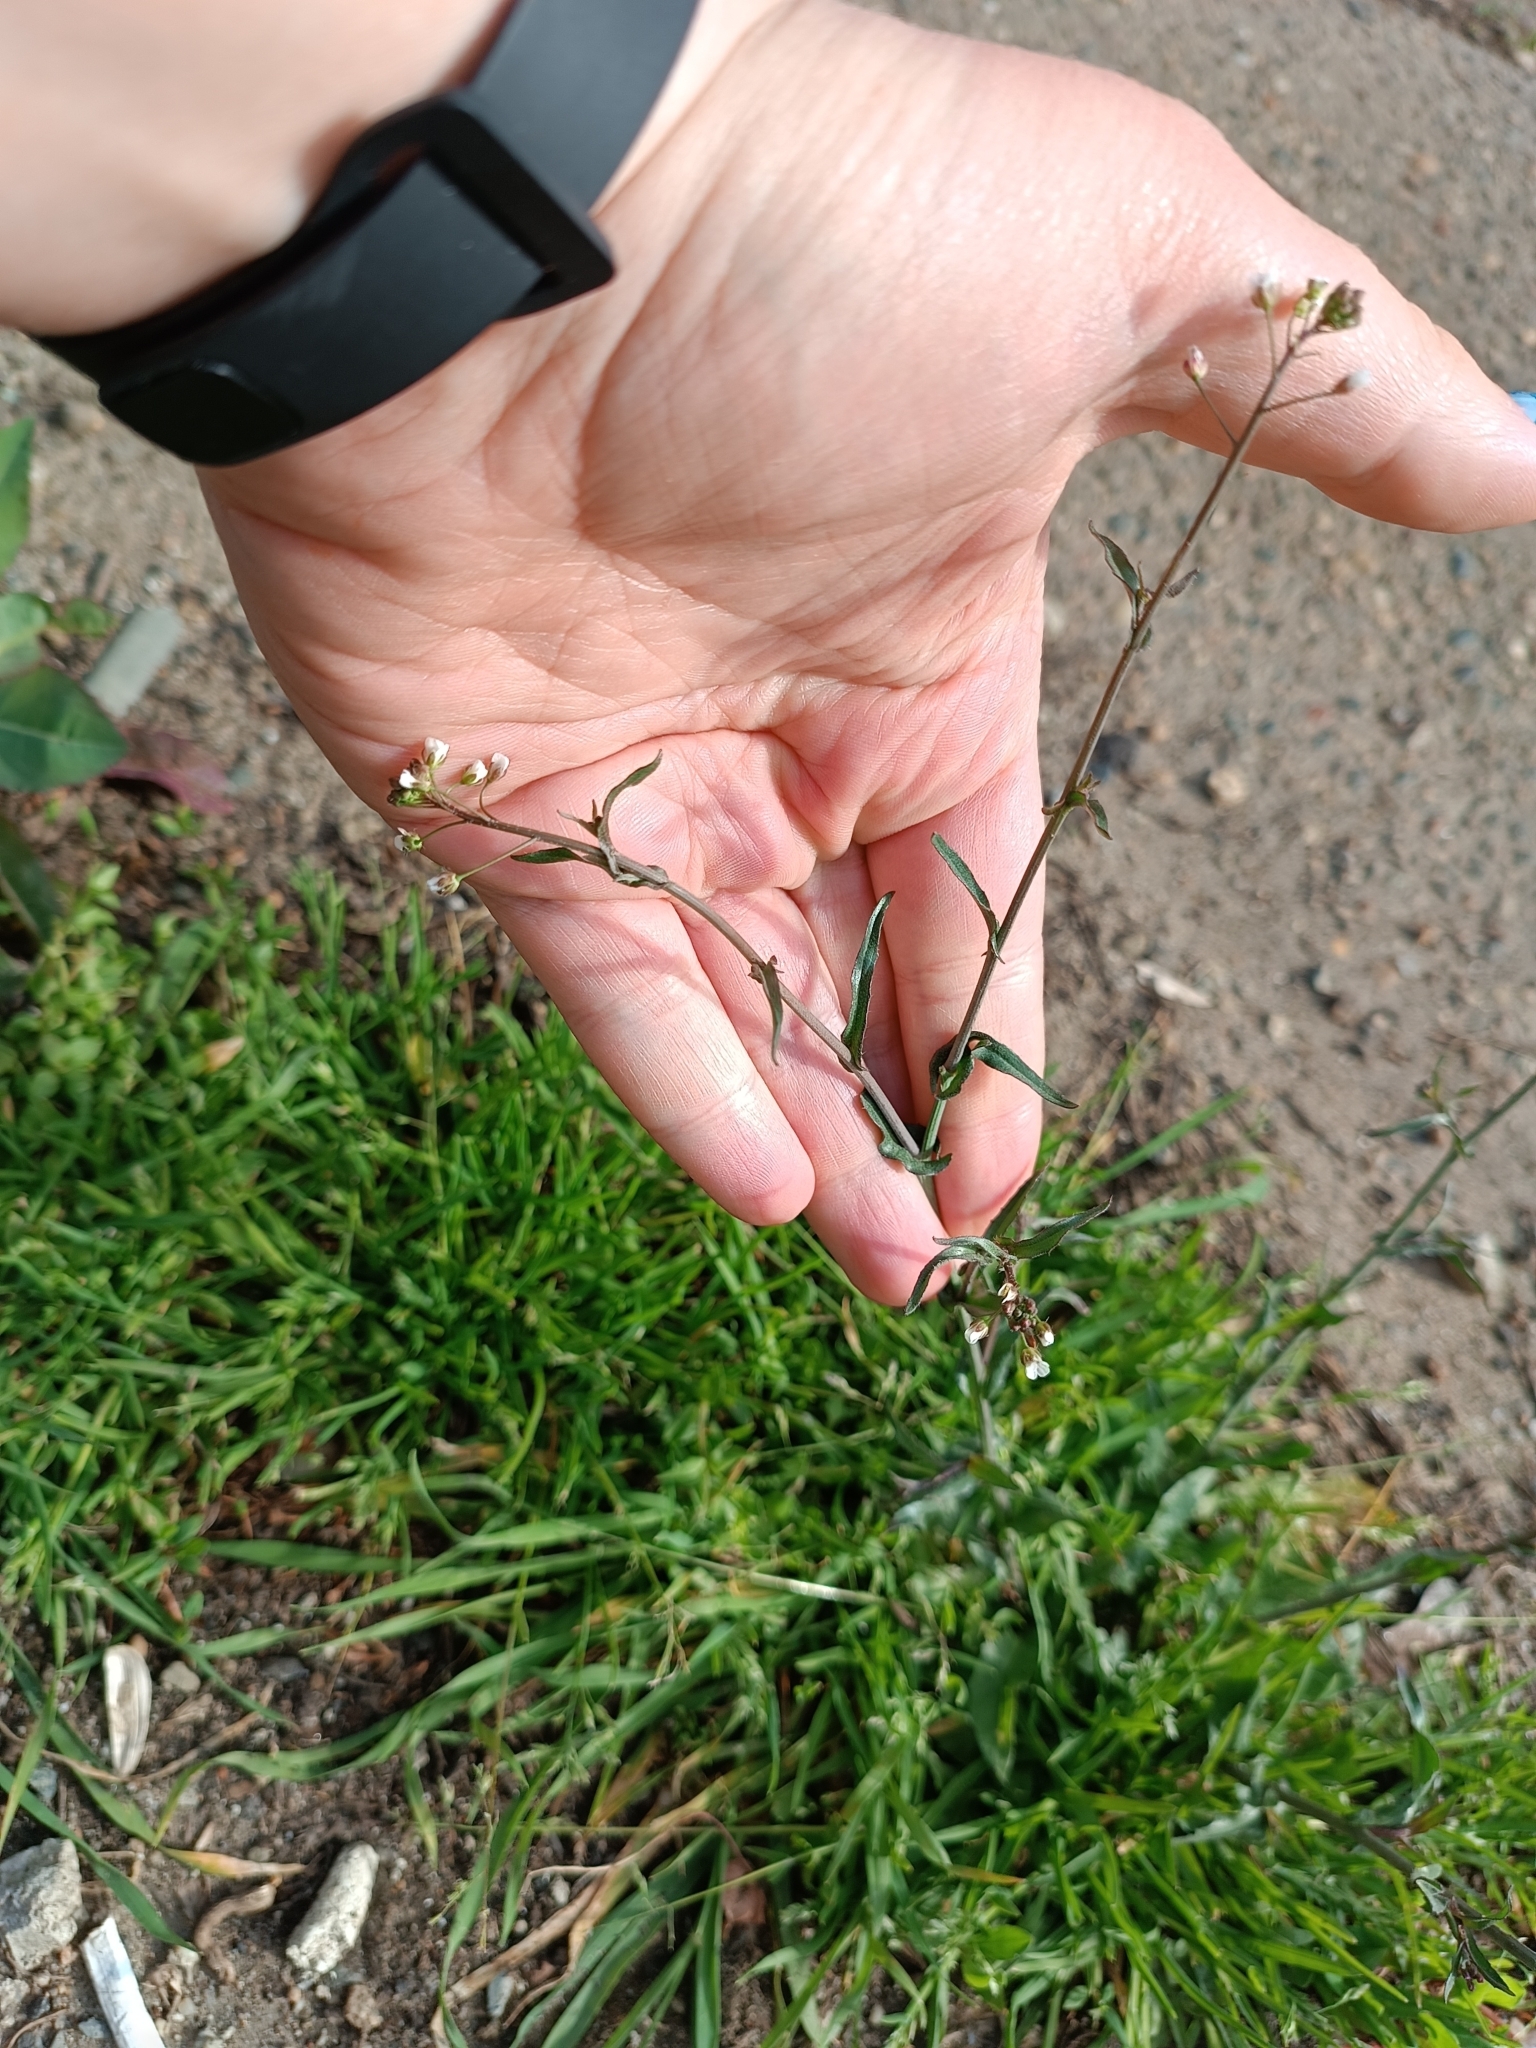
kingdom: Plantae
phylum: Tracheophyta
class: Magnoliopsida
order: Brassicales
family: Brassicaceae
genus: Capsella
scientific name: Capsella bursa-pastoris
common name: Shepherd's purse
